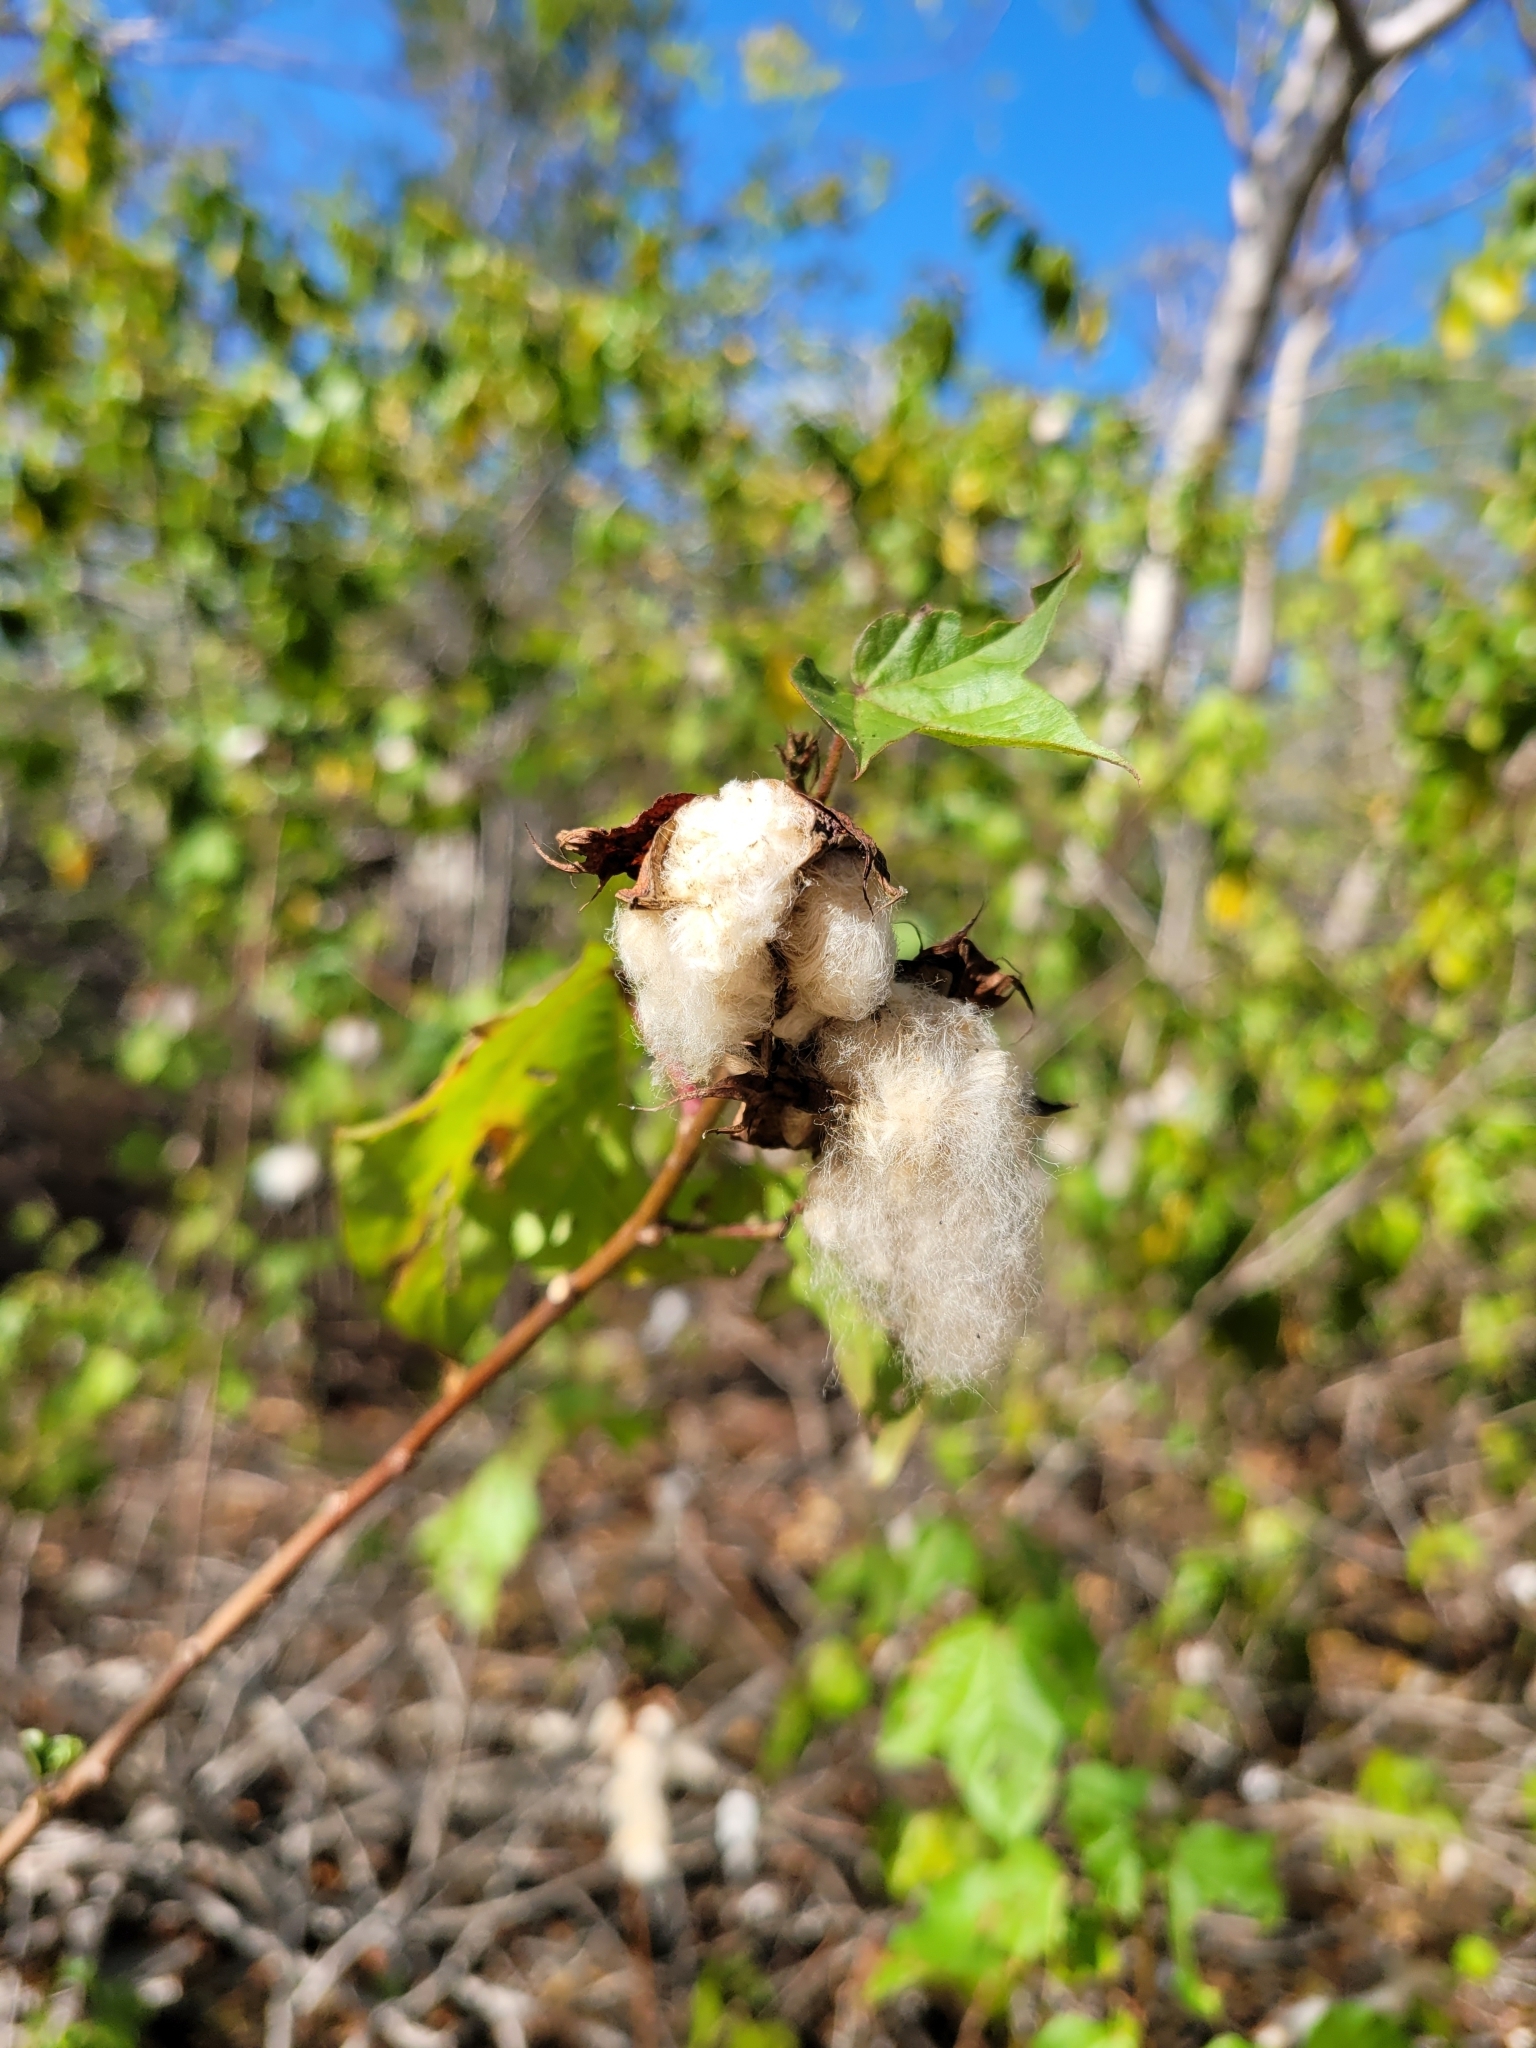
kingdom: Plantae
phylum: Tracheophyta
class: Magnoliopsida
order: Malvales
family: Malvaceae
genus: Gossypium
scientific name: Gossypium hirsutum
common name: Cotton
